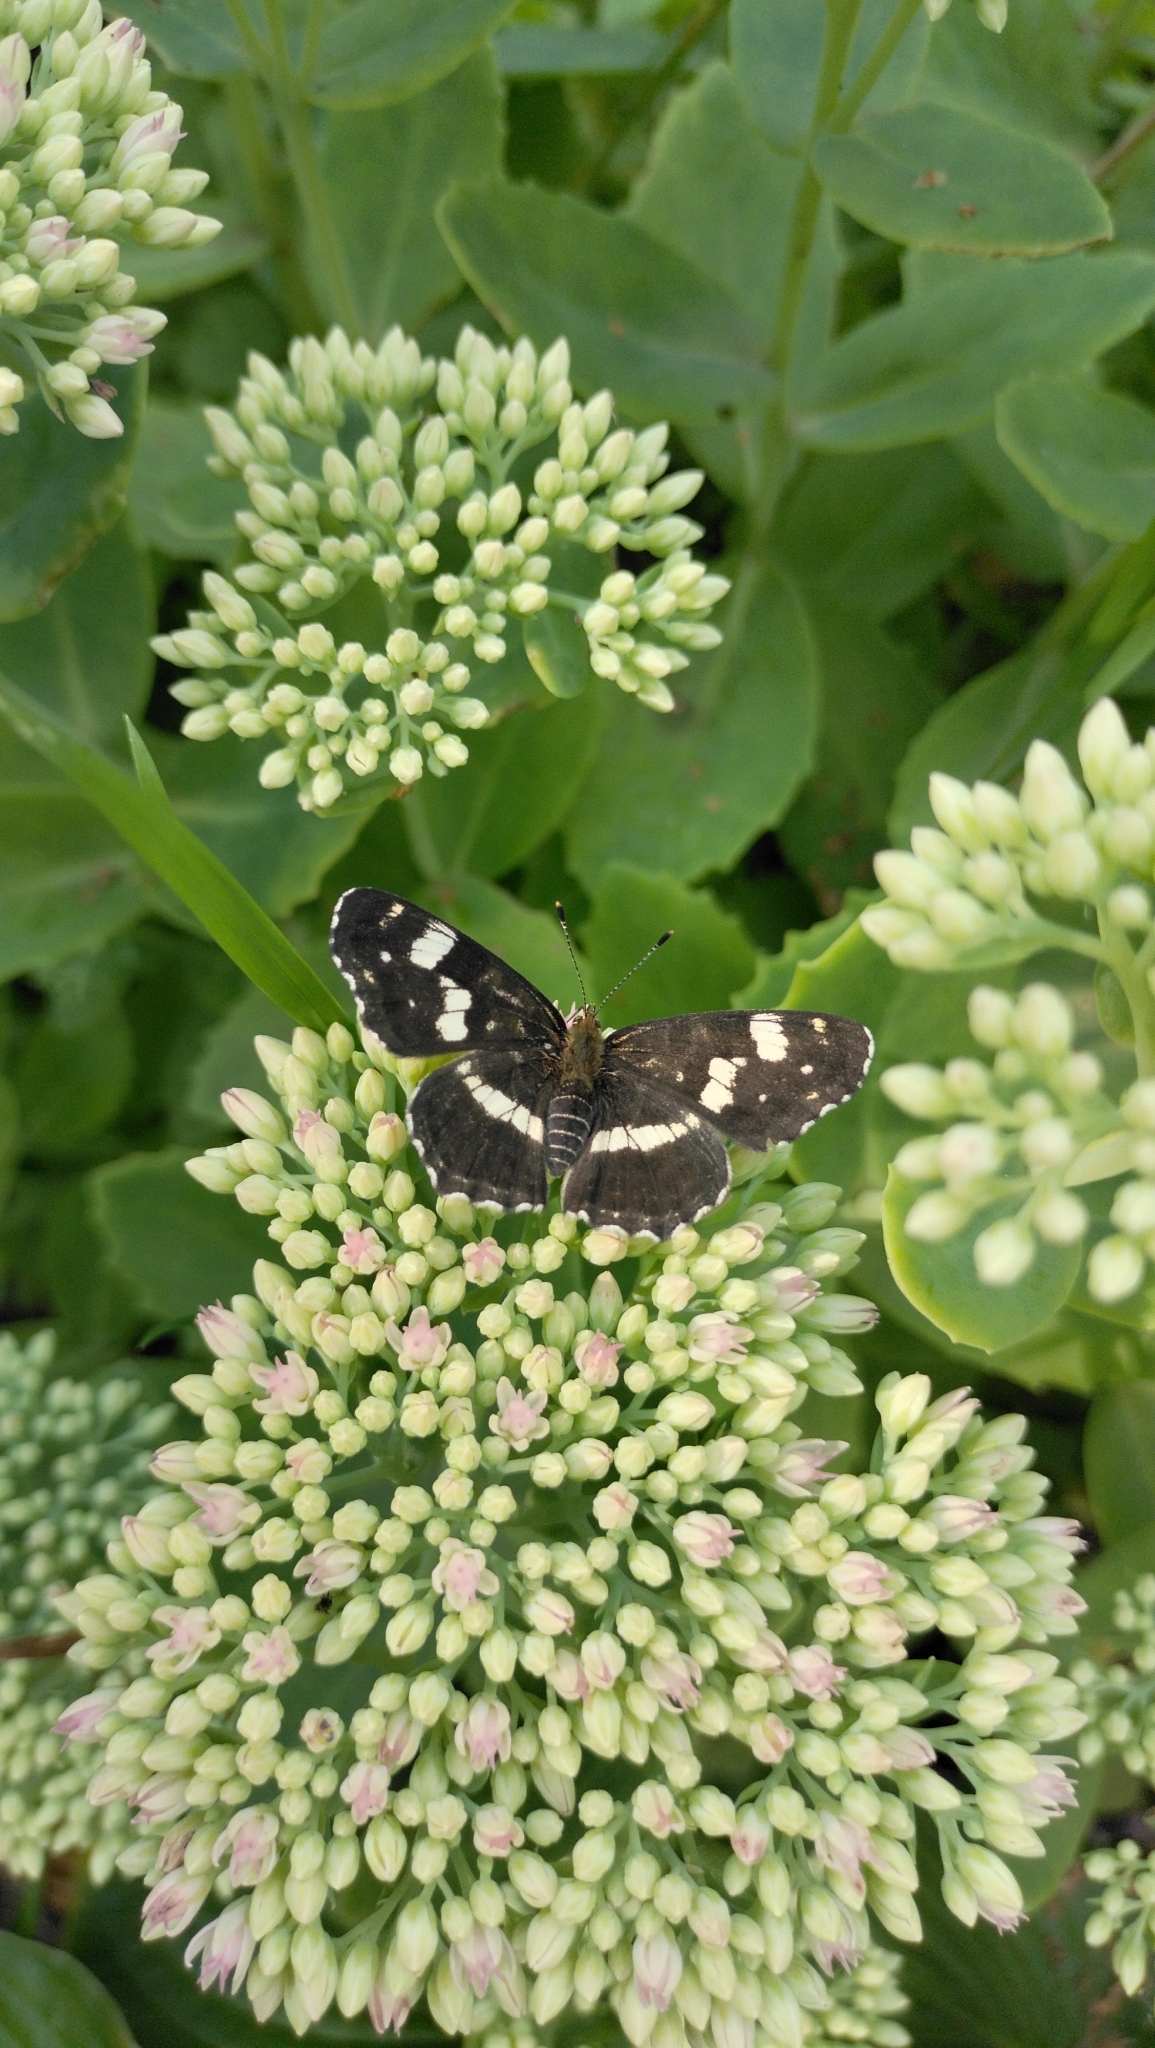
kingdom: Animalia
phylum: Arthropoda
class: Insecta
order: Lepidoptera
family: Nymphalidae
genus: Araschnia
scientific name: Araschnia levana
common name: Map butterfly
